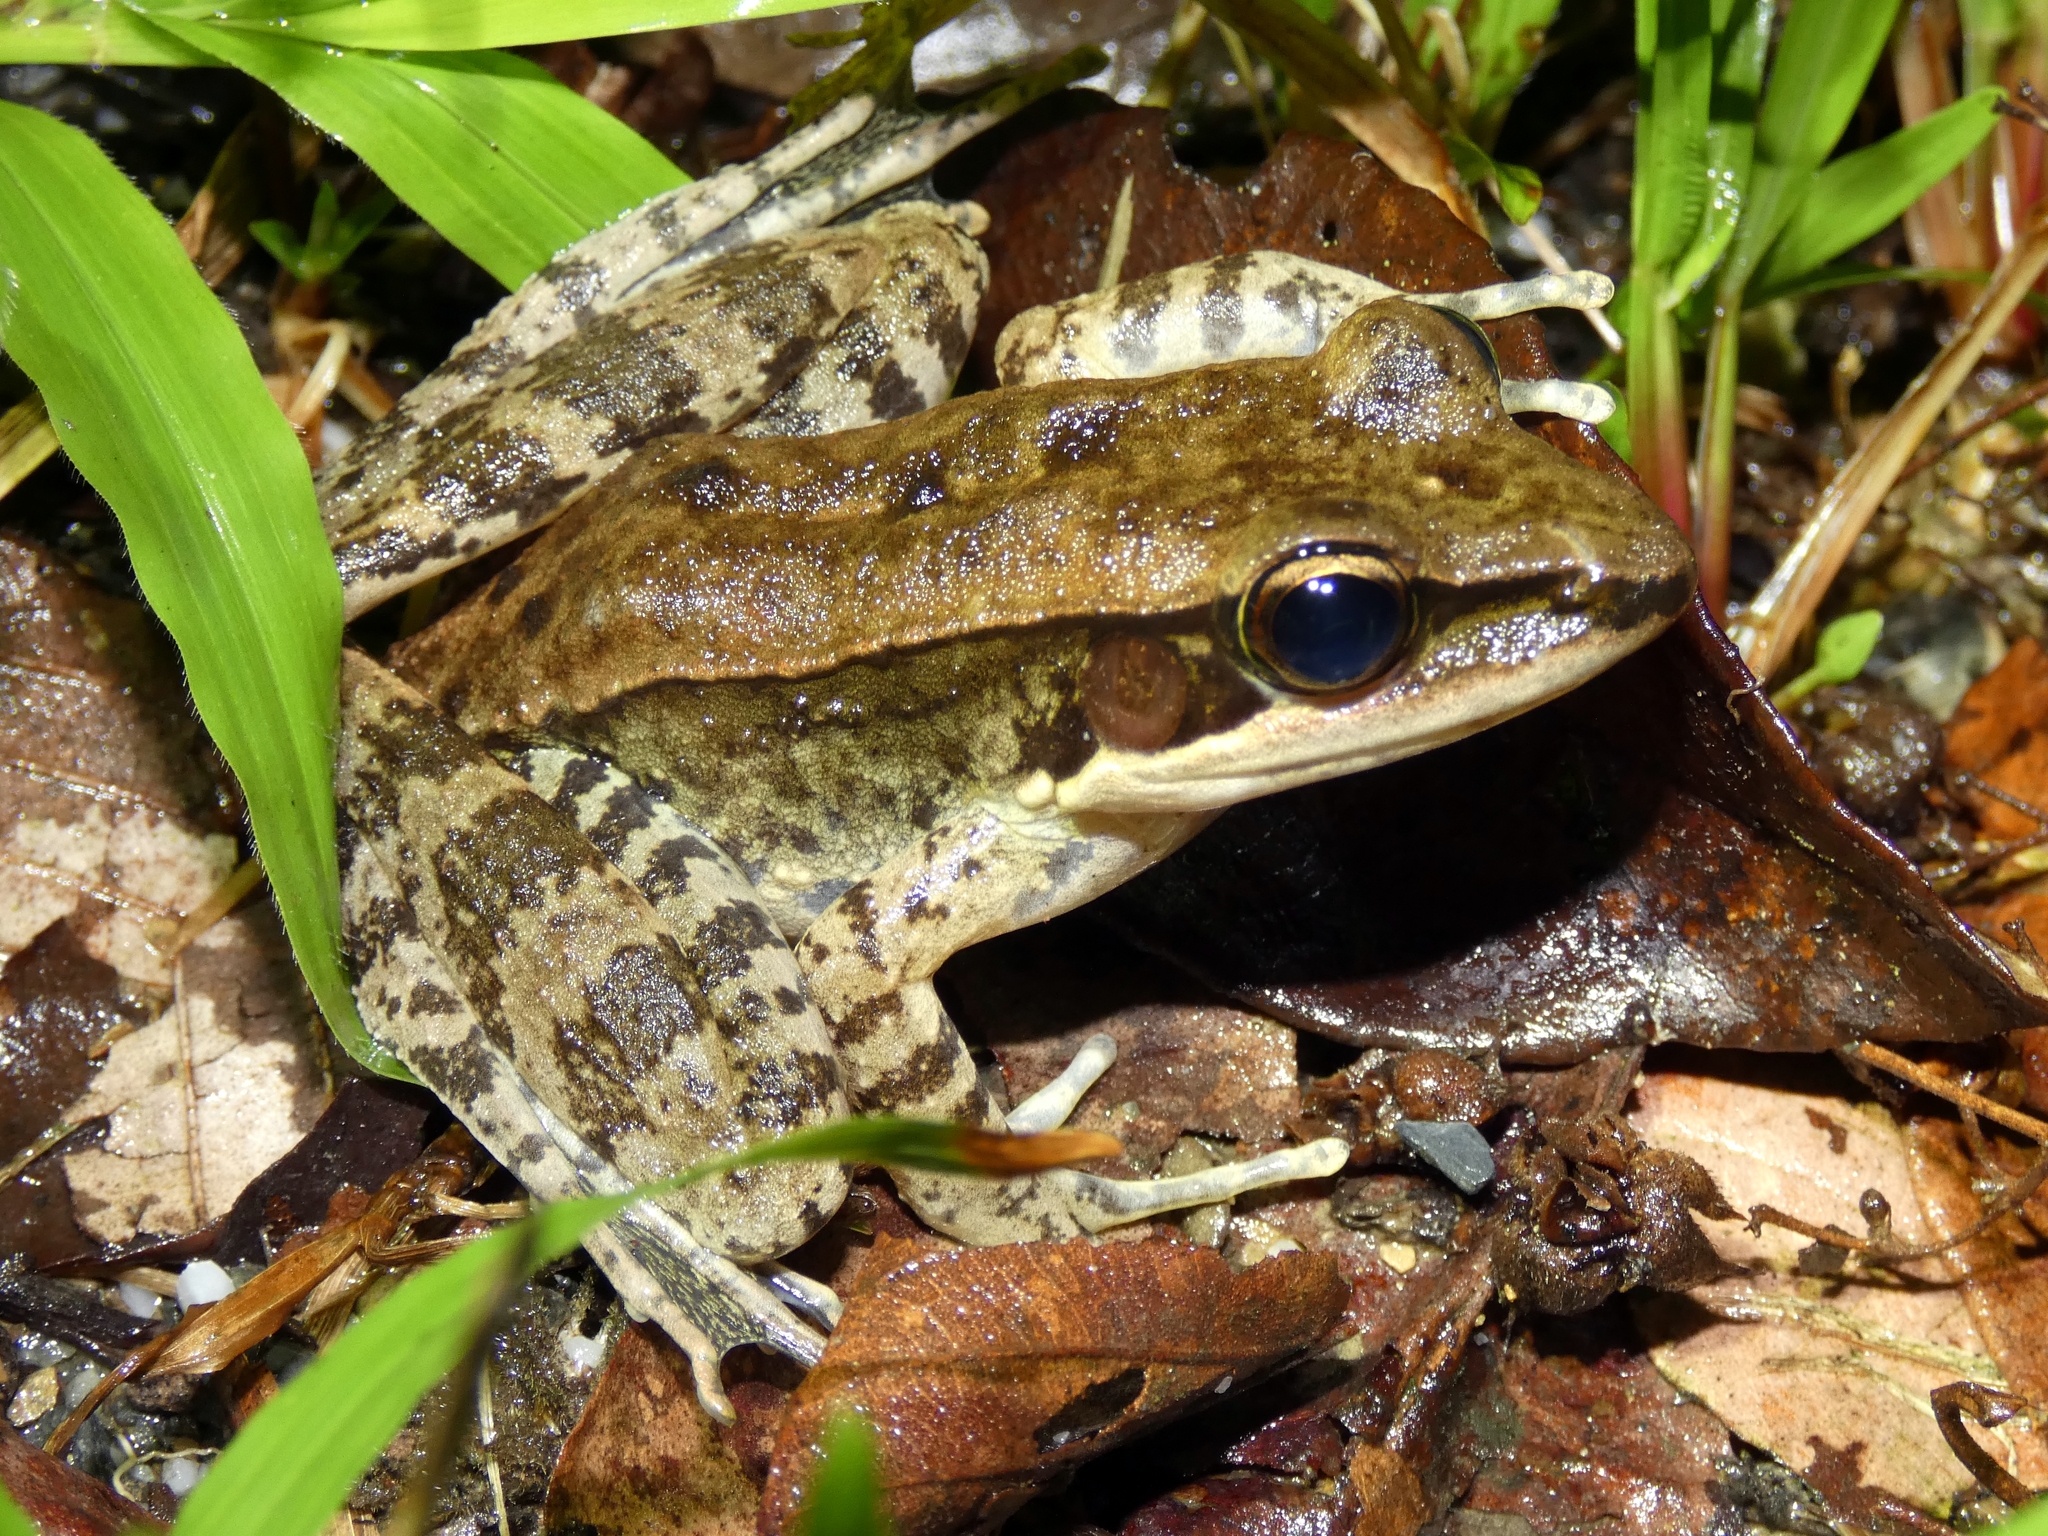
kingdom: Animalia
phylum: Chordata
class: Amphibia
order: Anura
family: Ranidae
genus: Papurana
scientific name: Papurana daemeli
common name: Arhem rana
